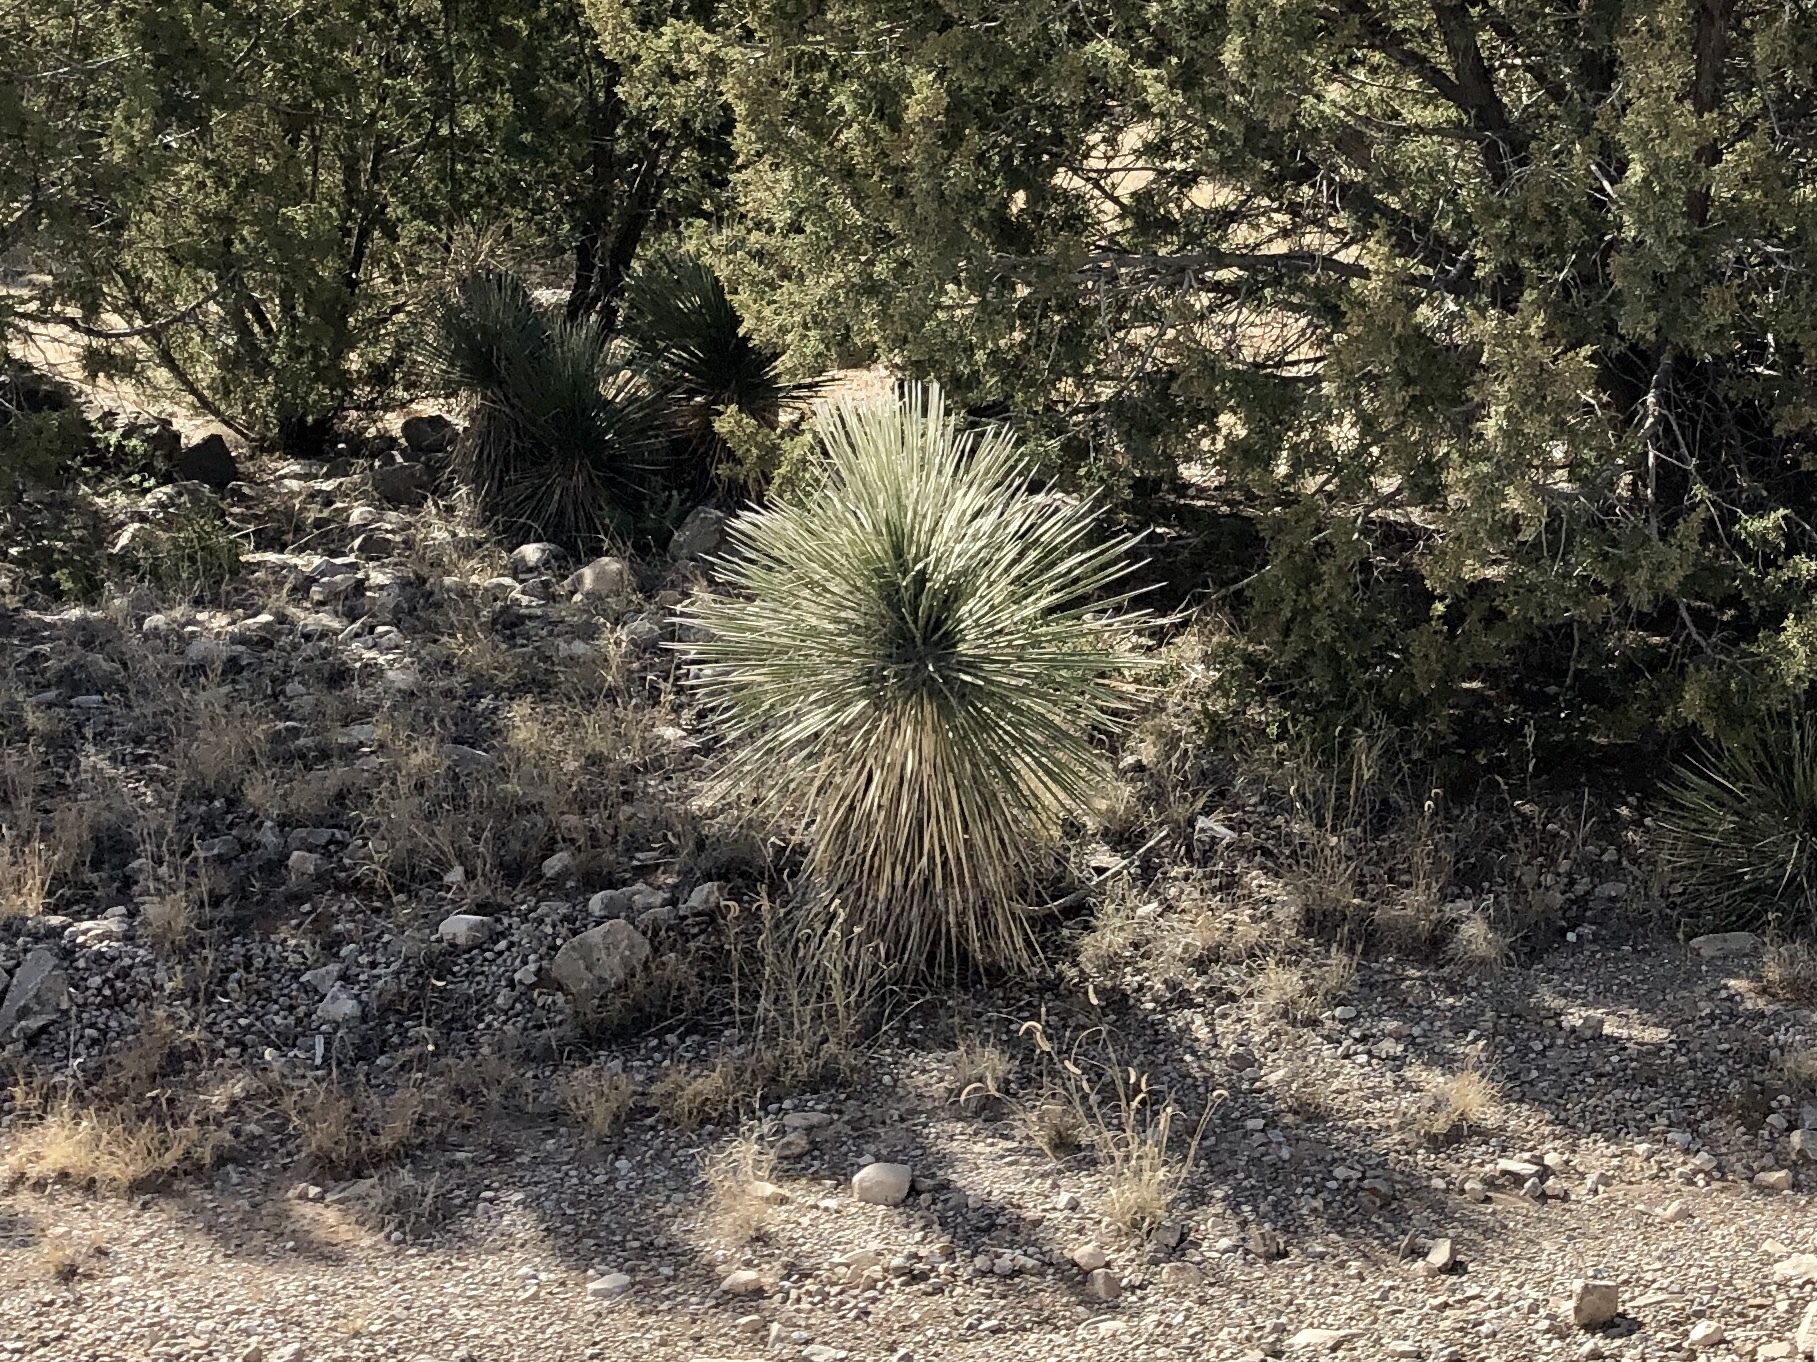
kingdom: Plantae
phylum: Tracheophyta
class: Liliopsida
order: Asparagales
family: Asparagaceae
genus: Yucca
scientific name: Yucca elata
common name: Palmella
